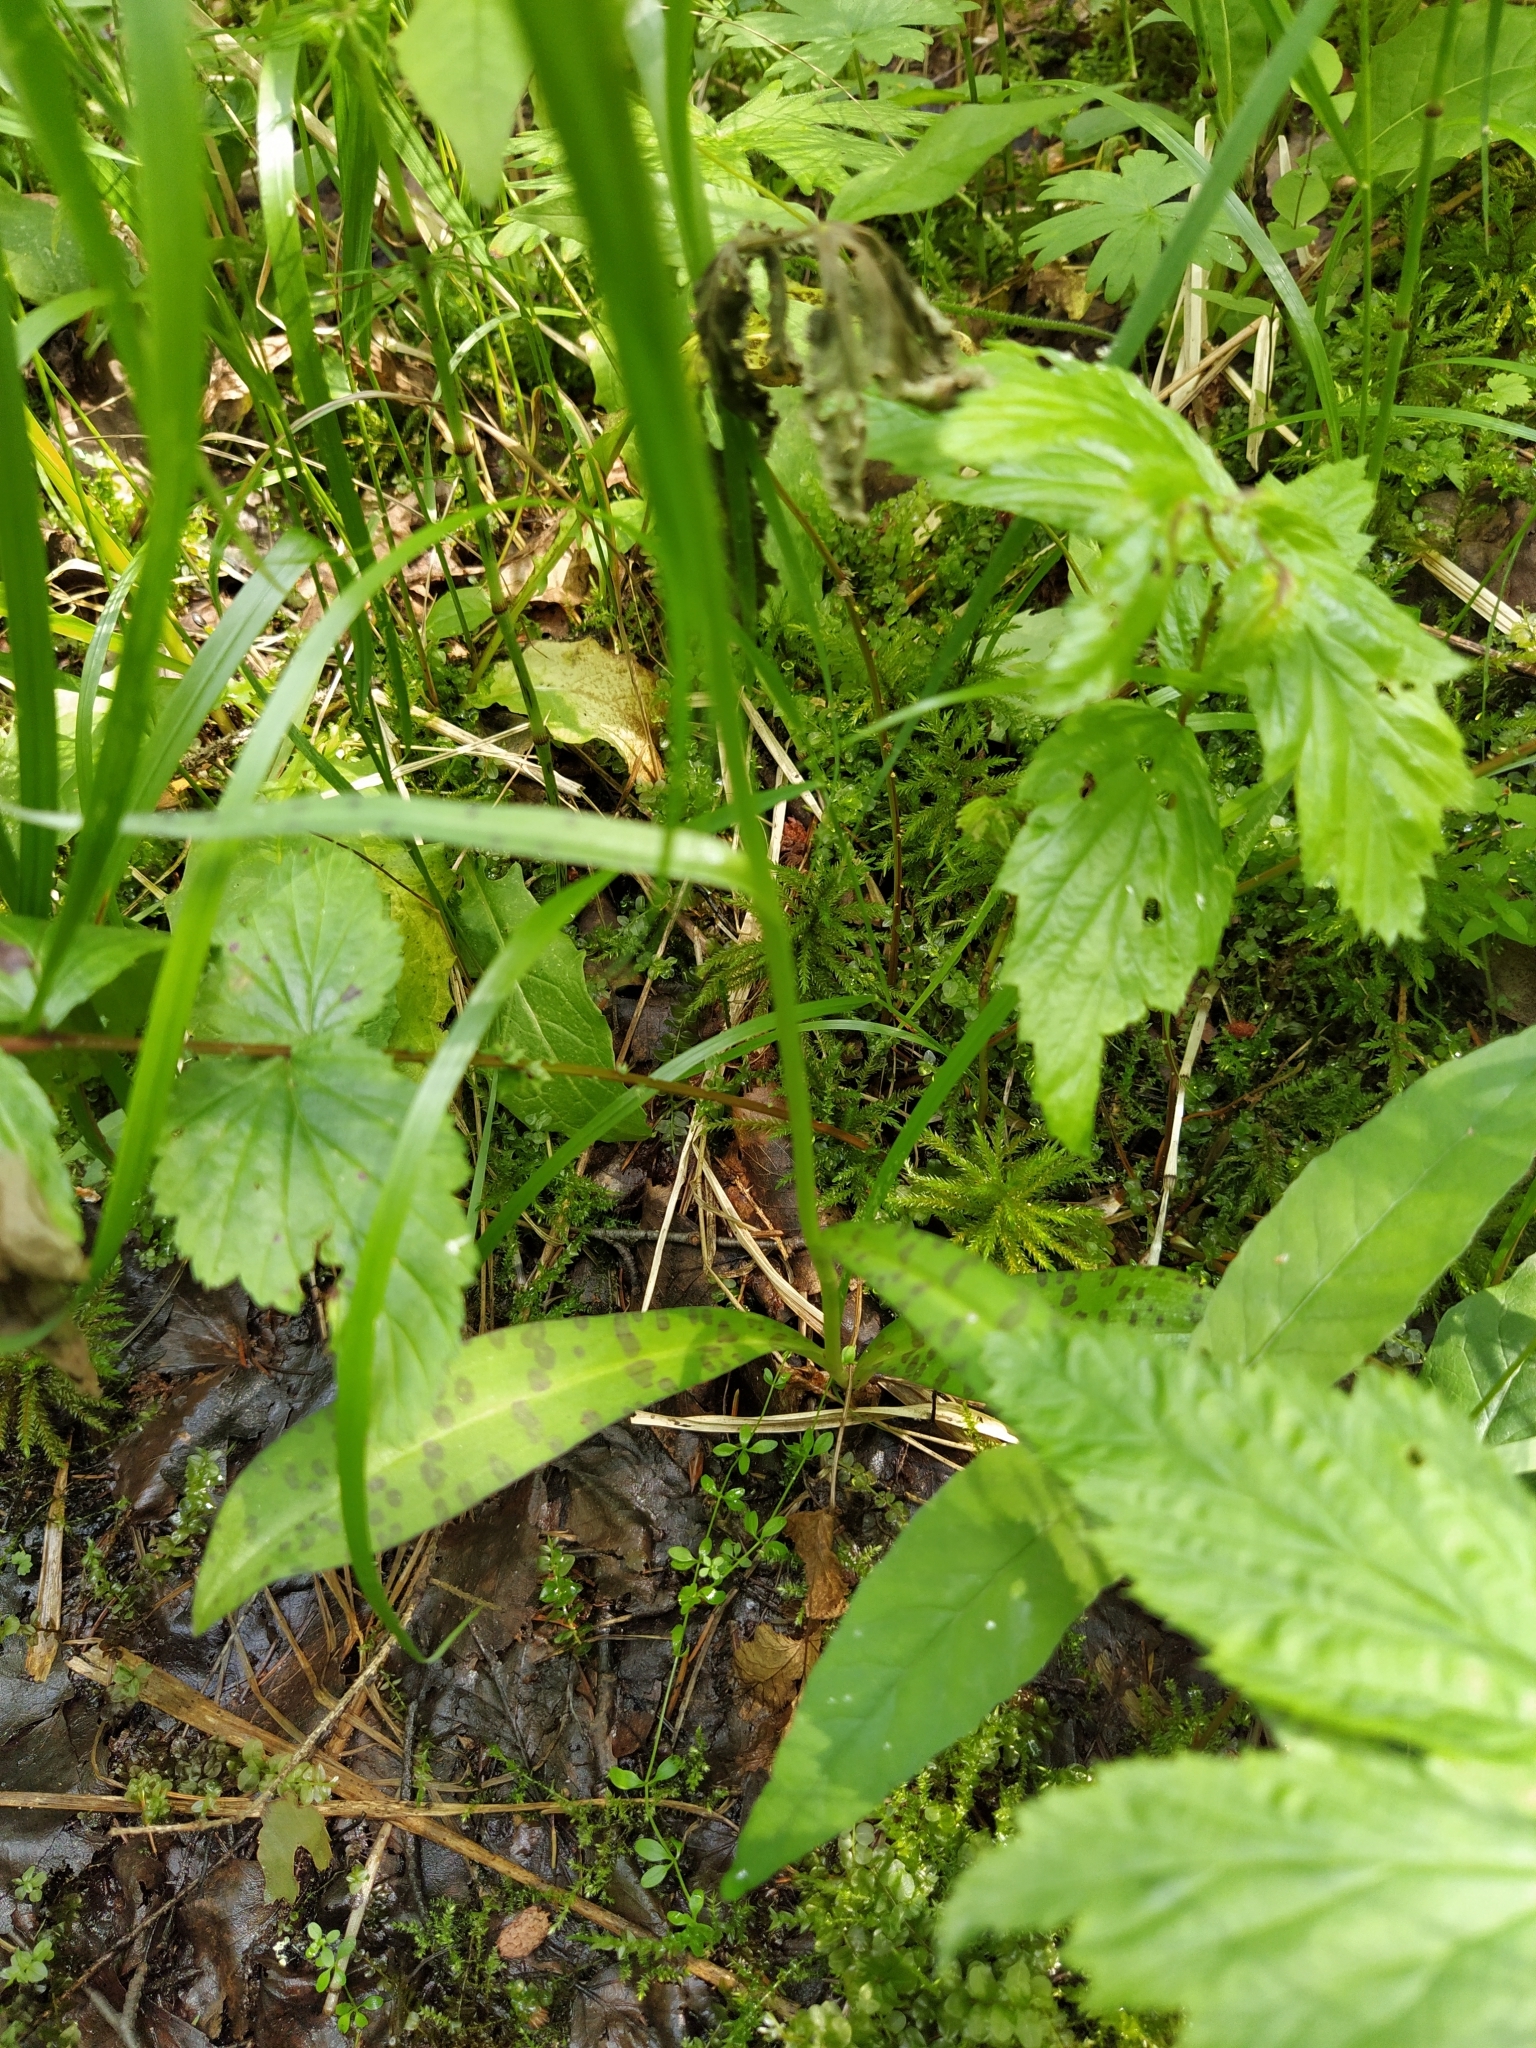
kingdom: Plantae
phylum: Tracheophyta
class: Liliopsida
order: Asparagales
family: Orchidaceae
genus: Dactylorhiza
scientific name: Dactylorhiza maculata
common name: Heath spotted-orchid
